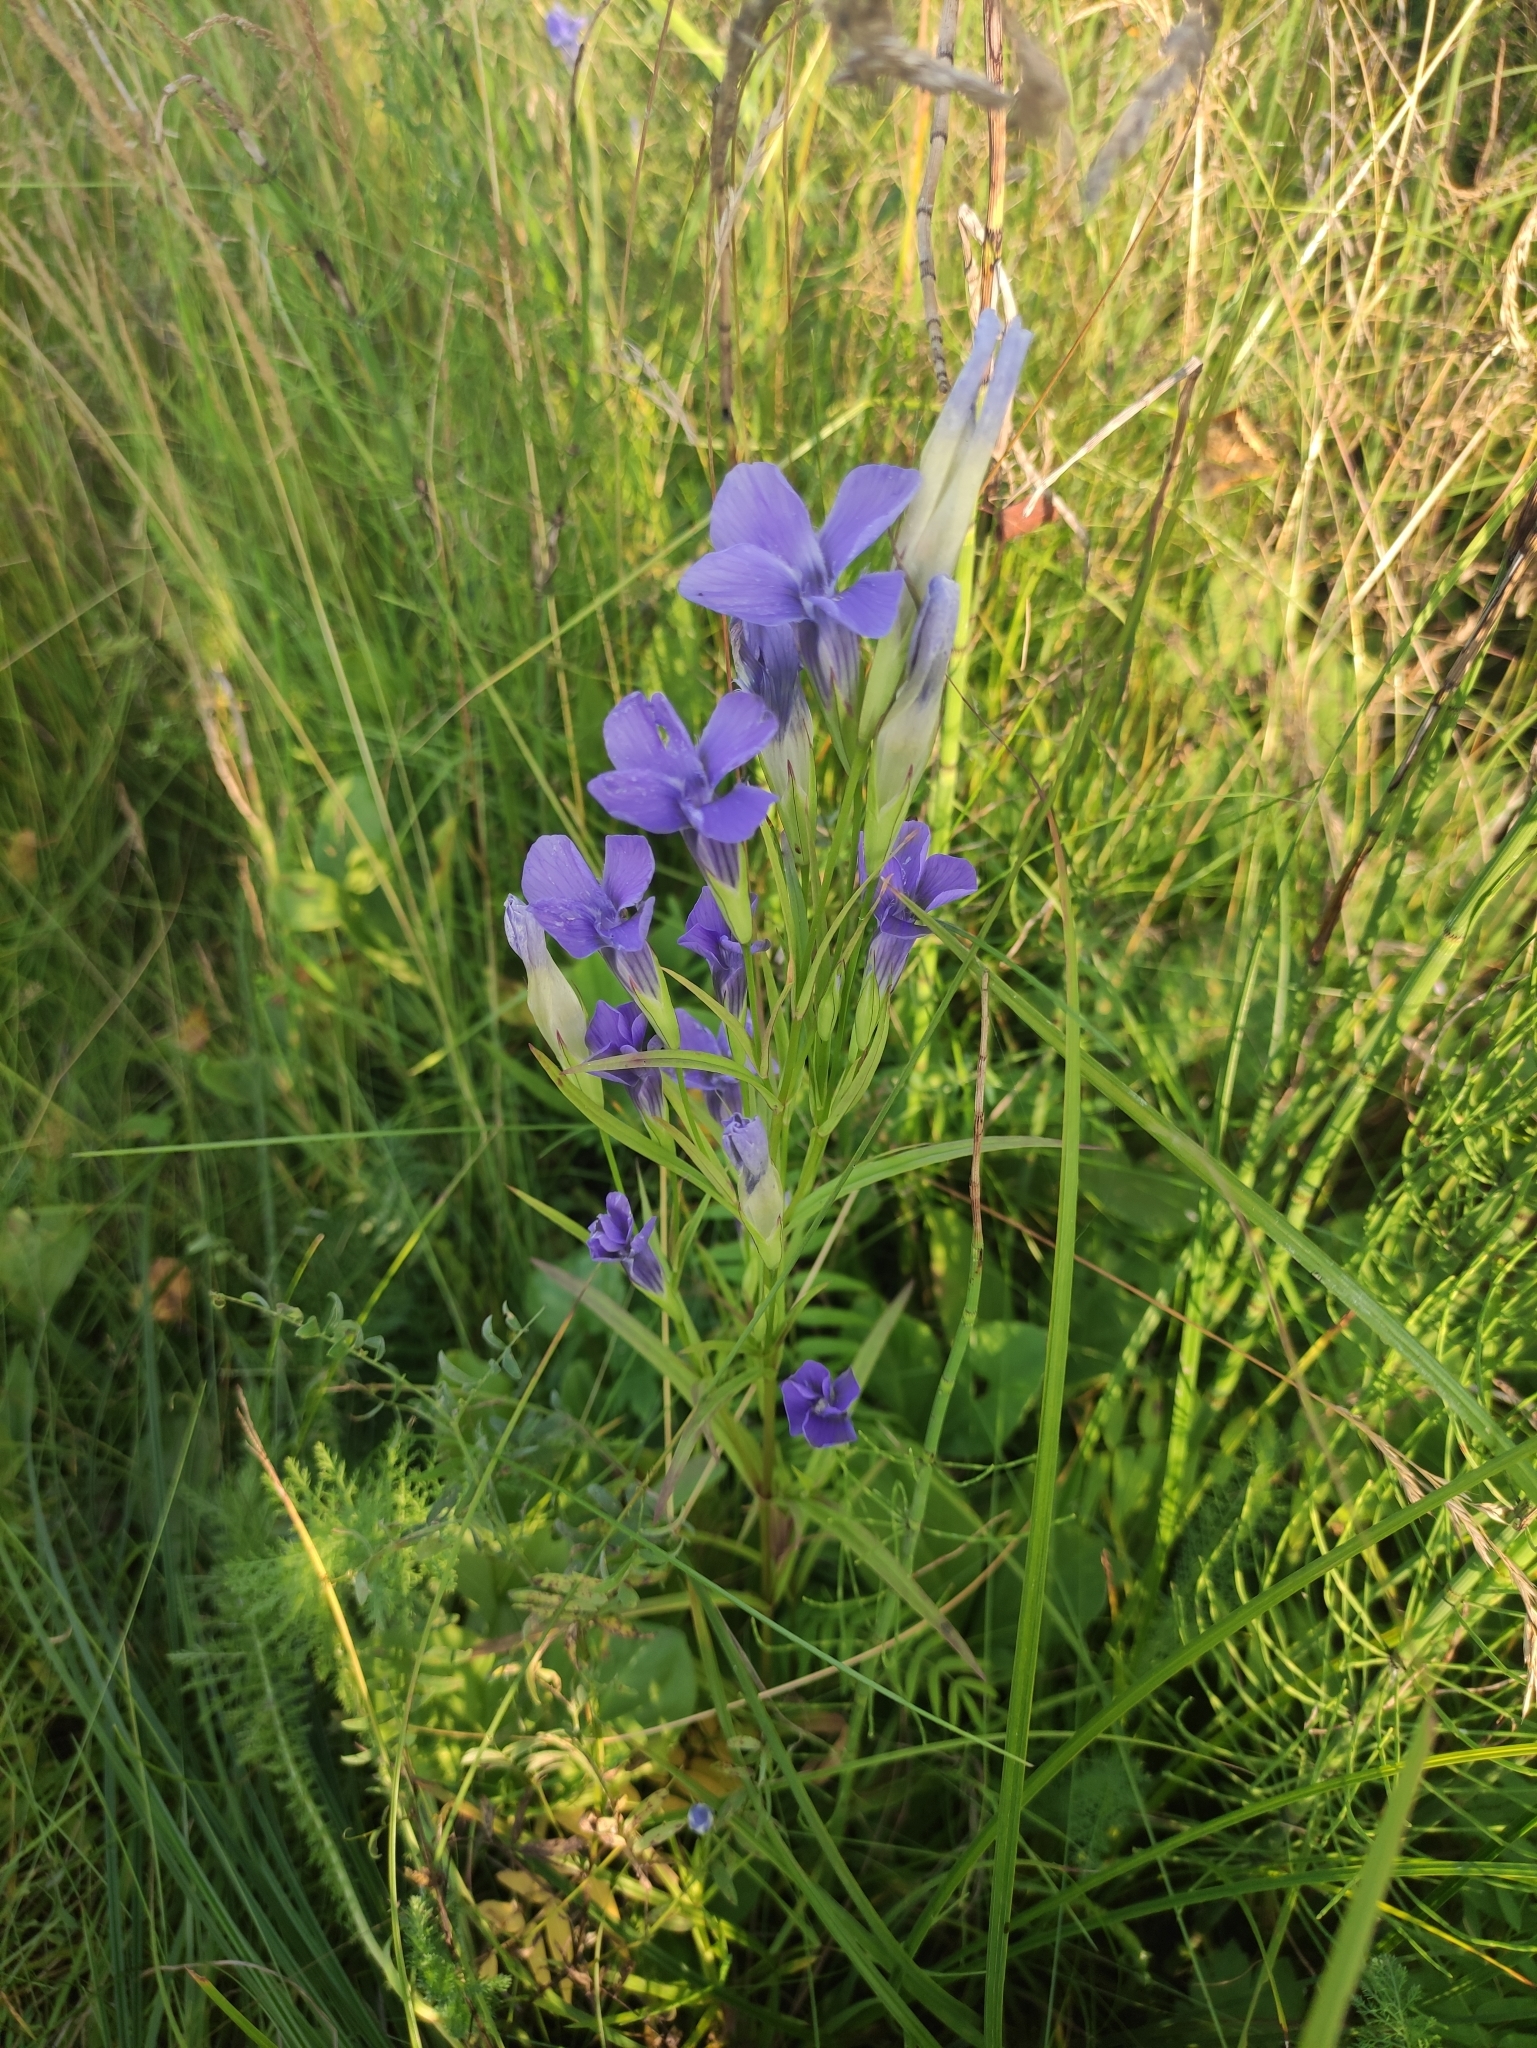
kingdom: Plantae
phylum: Tracheophyta
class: Magnoliopsida
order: Gentianales
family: Gentianaceae
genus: Gentianopsis
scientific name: Gentianopsis barbata
